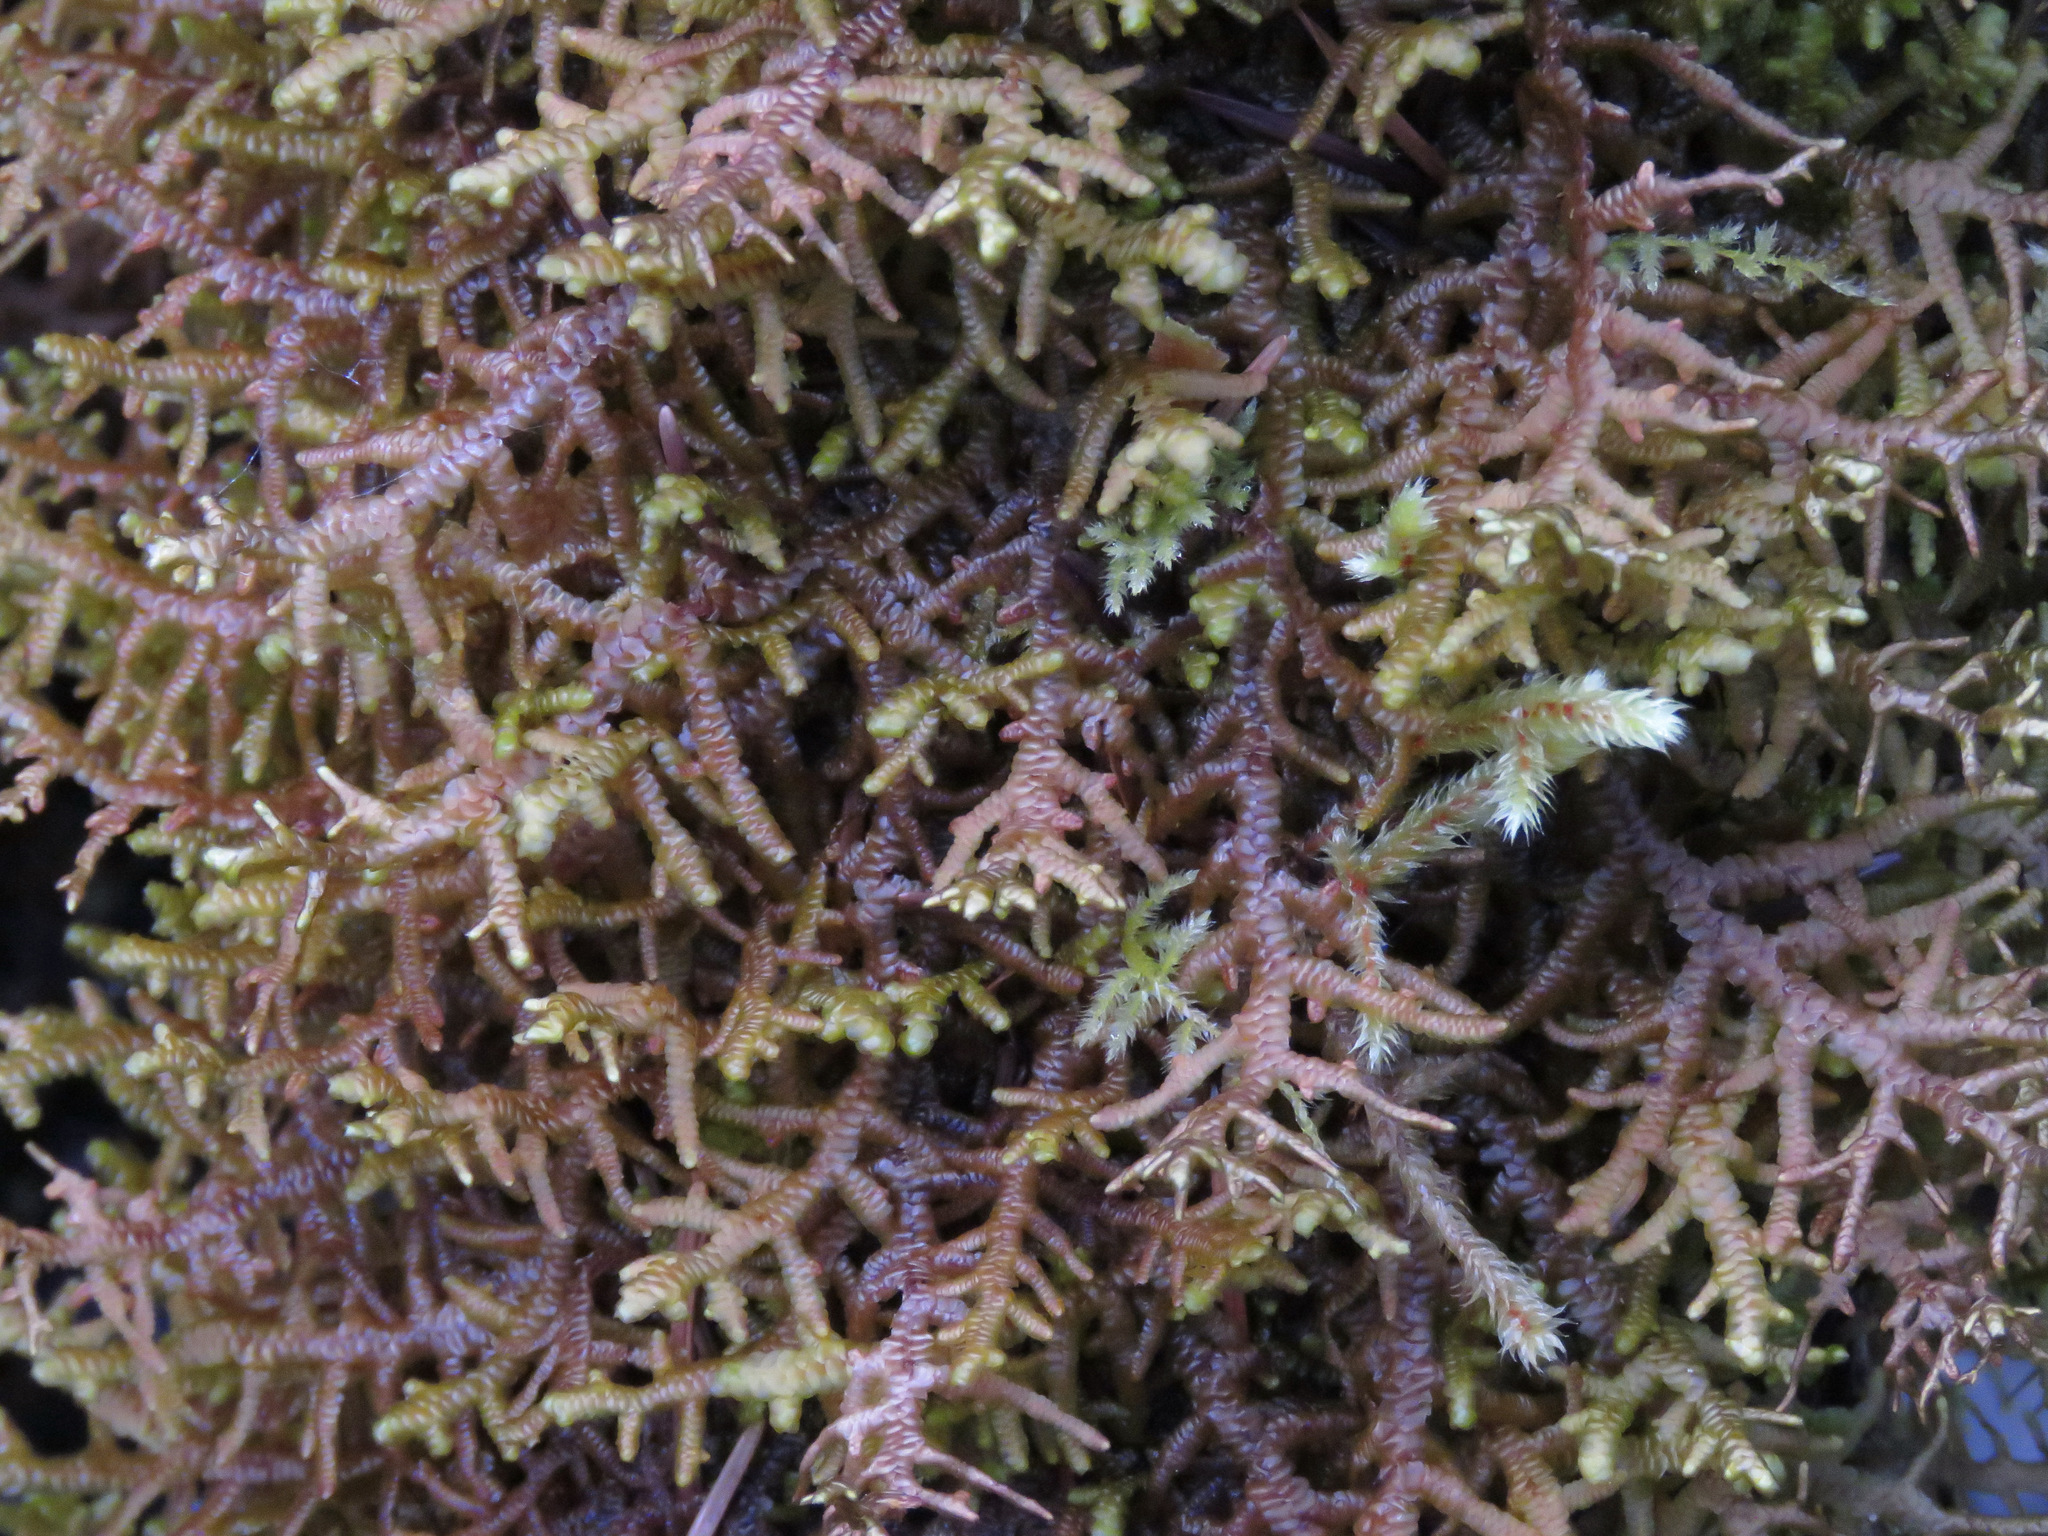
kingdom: Plantae
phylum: Marchantiophyta
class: Jungermanniopsida
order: Porellales
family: Porellaceae
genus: Porella
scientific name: Porella navicularis
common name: Tree ruffle liverwort
